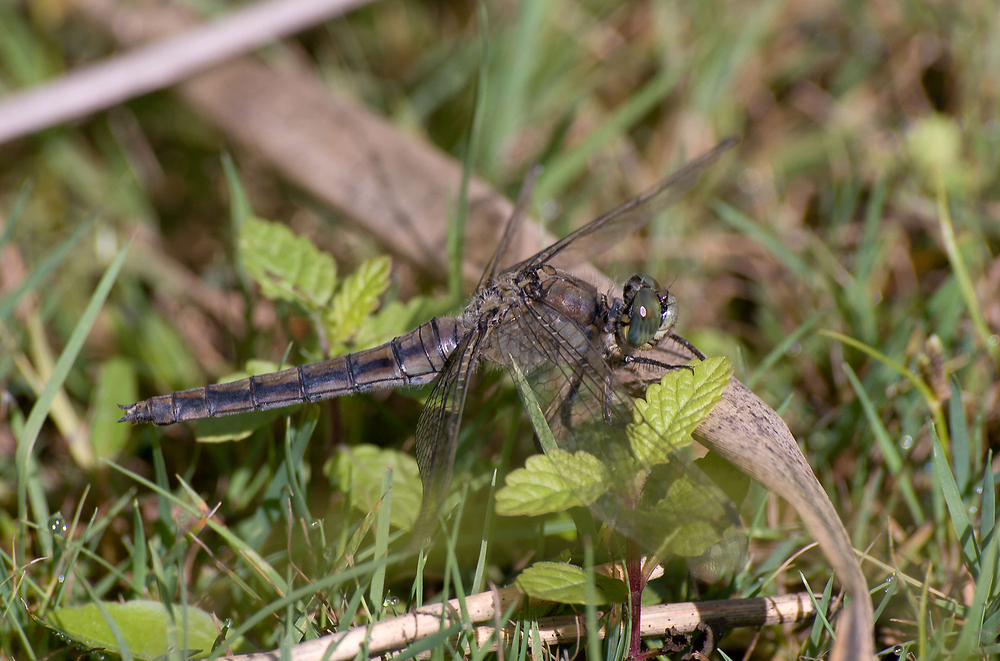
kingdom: Animalia
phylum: Arthropoda
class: Insecta
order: Odonata
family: Libellulidae
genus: Orthetrum
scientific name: Orthetrum cancellatum
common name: Black-tailed skimmer
